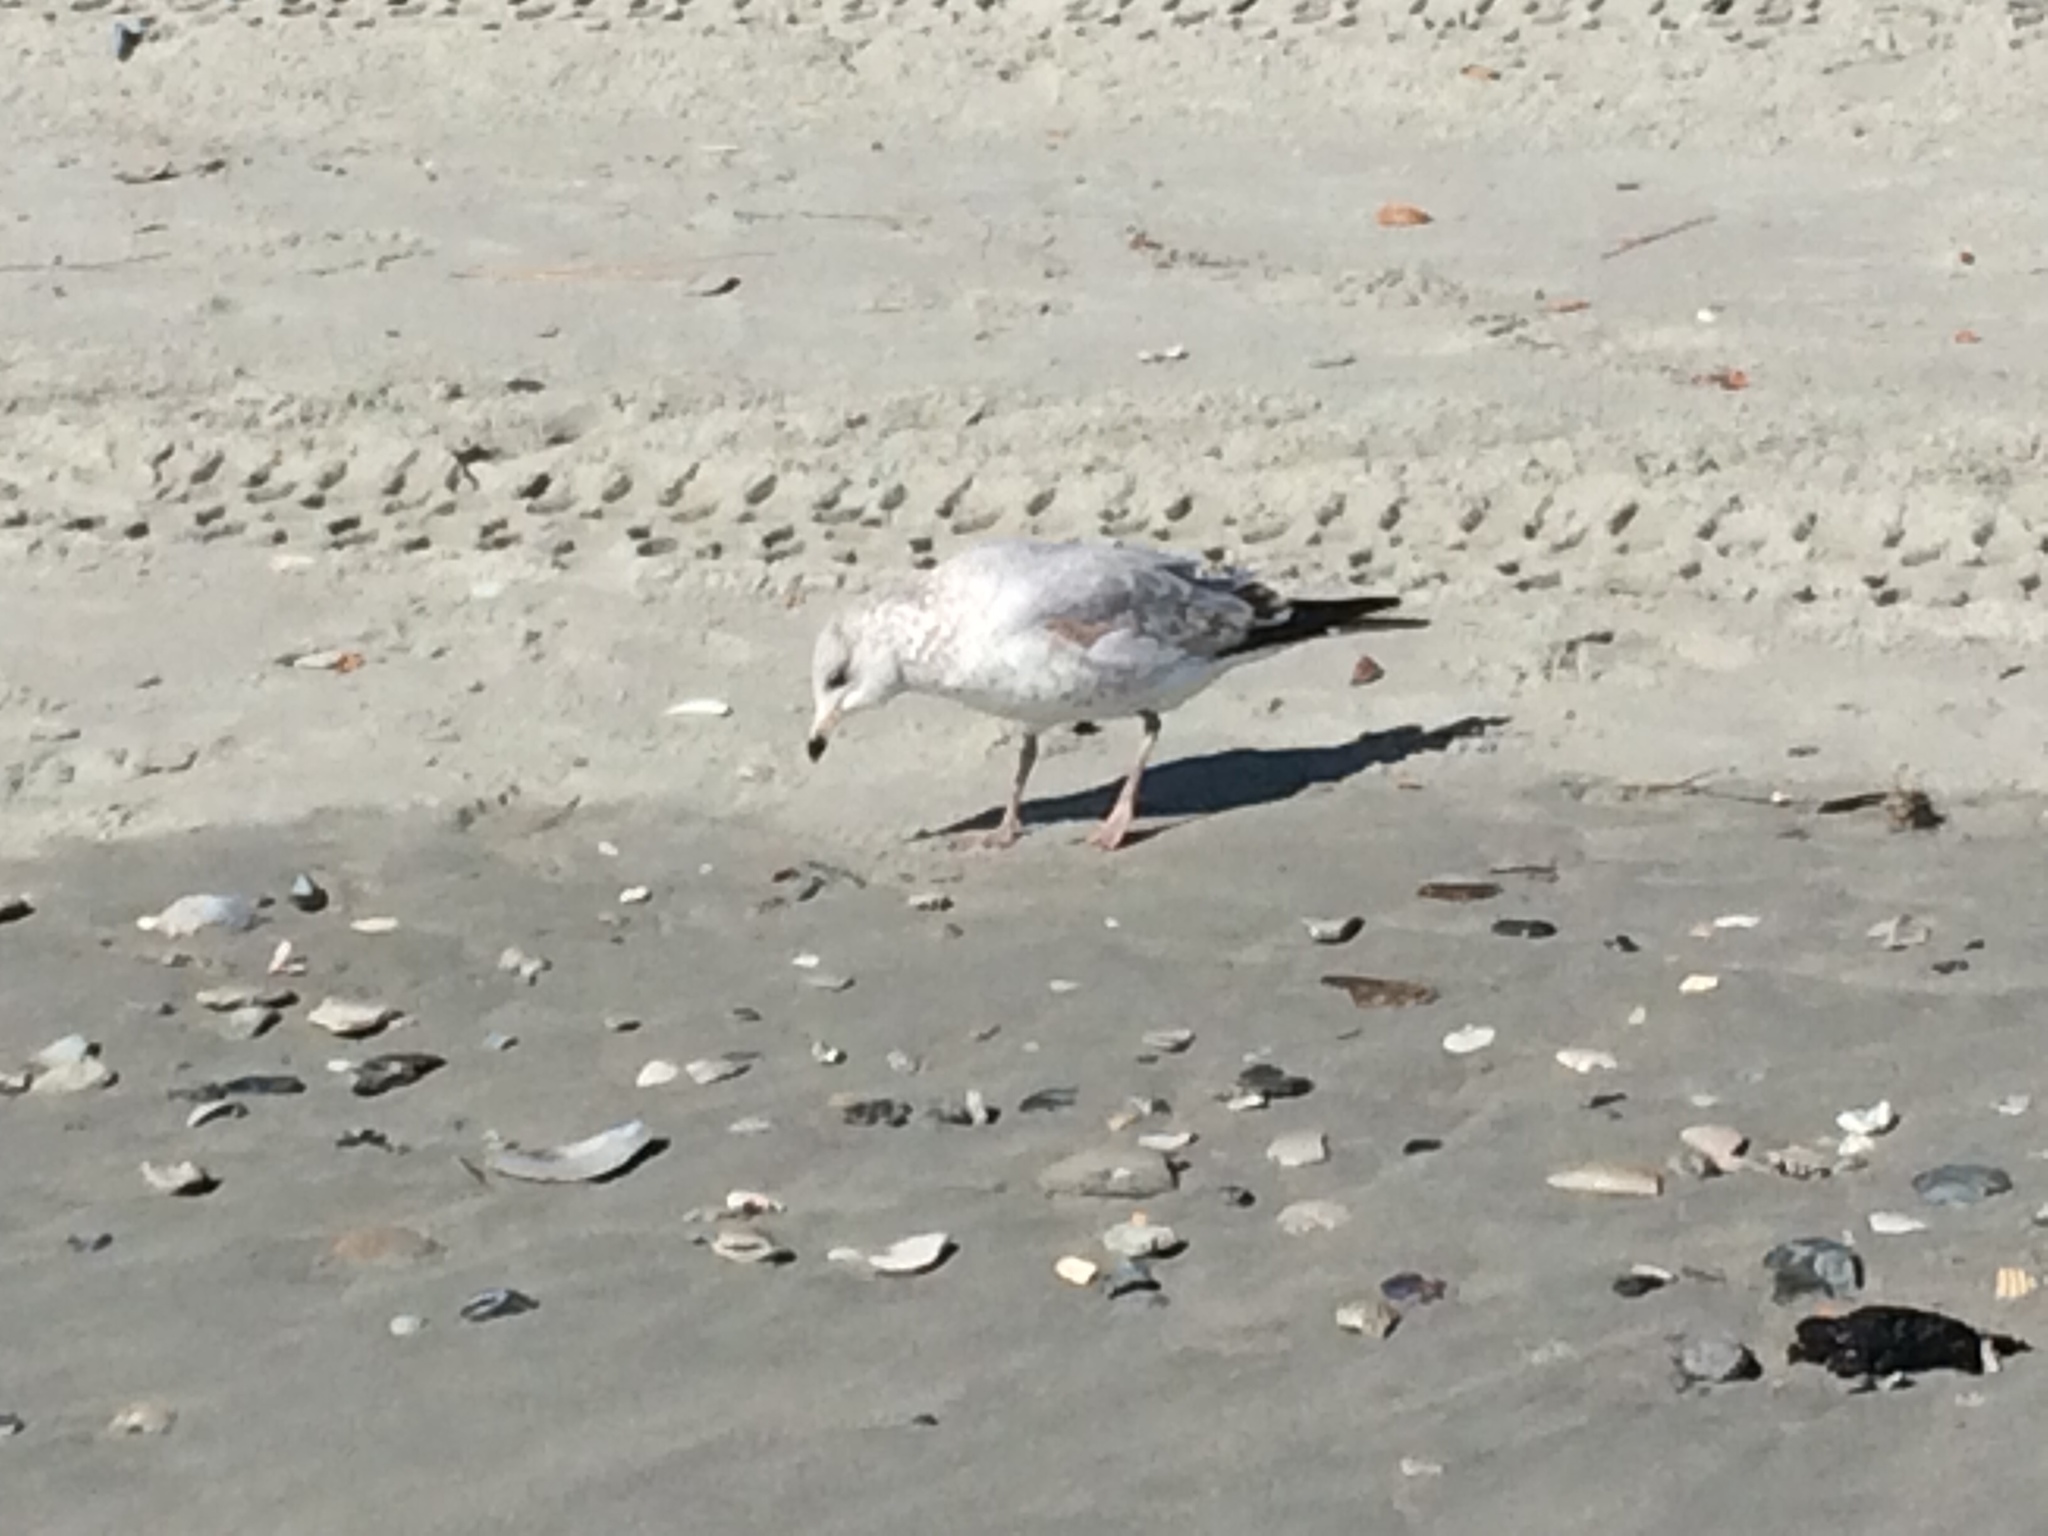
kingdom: Animalia
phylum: Chordata
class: Aves
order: Charadriiformes
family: Laridae
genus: Larus
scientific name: Larus delawarensis
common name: Ring-billed gull
